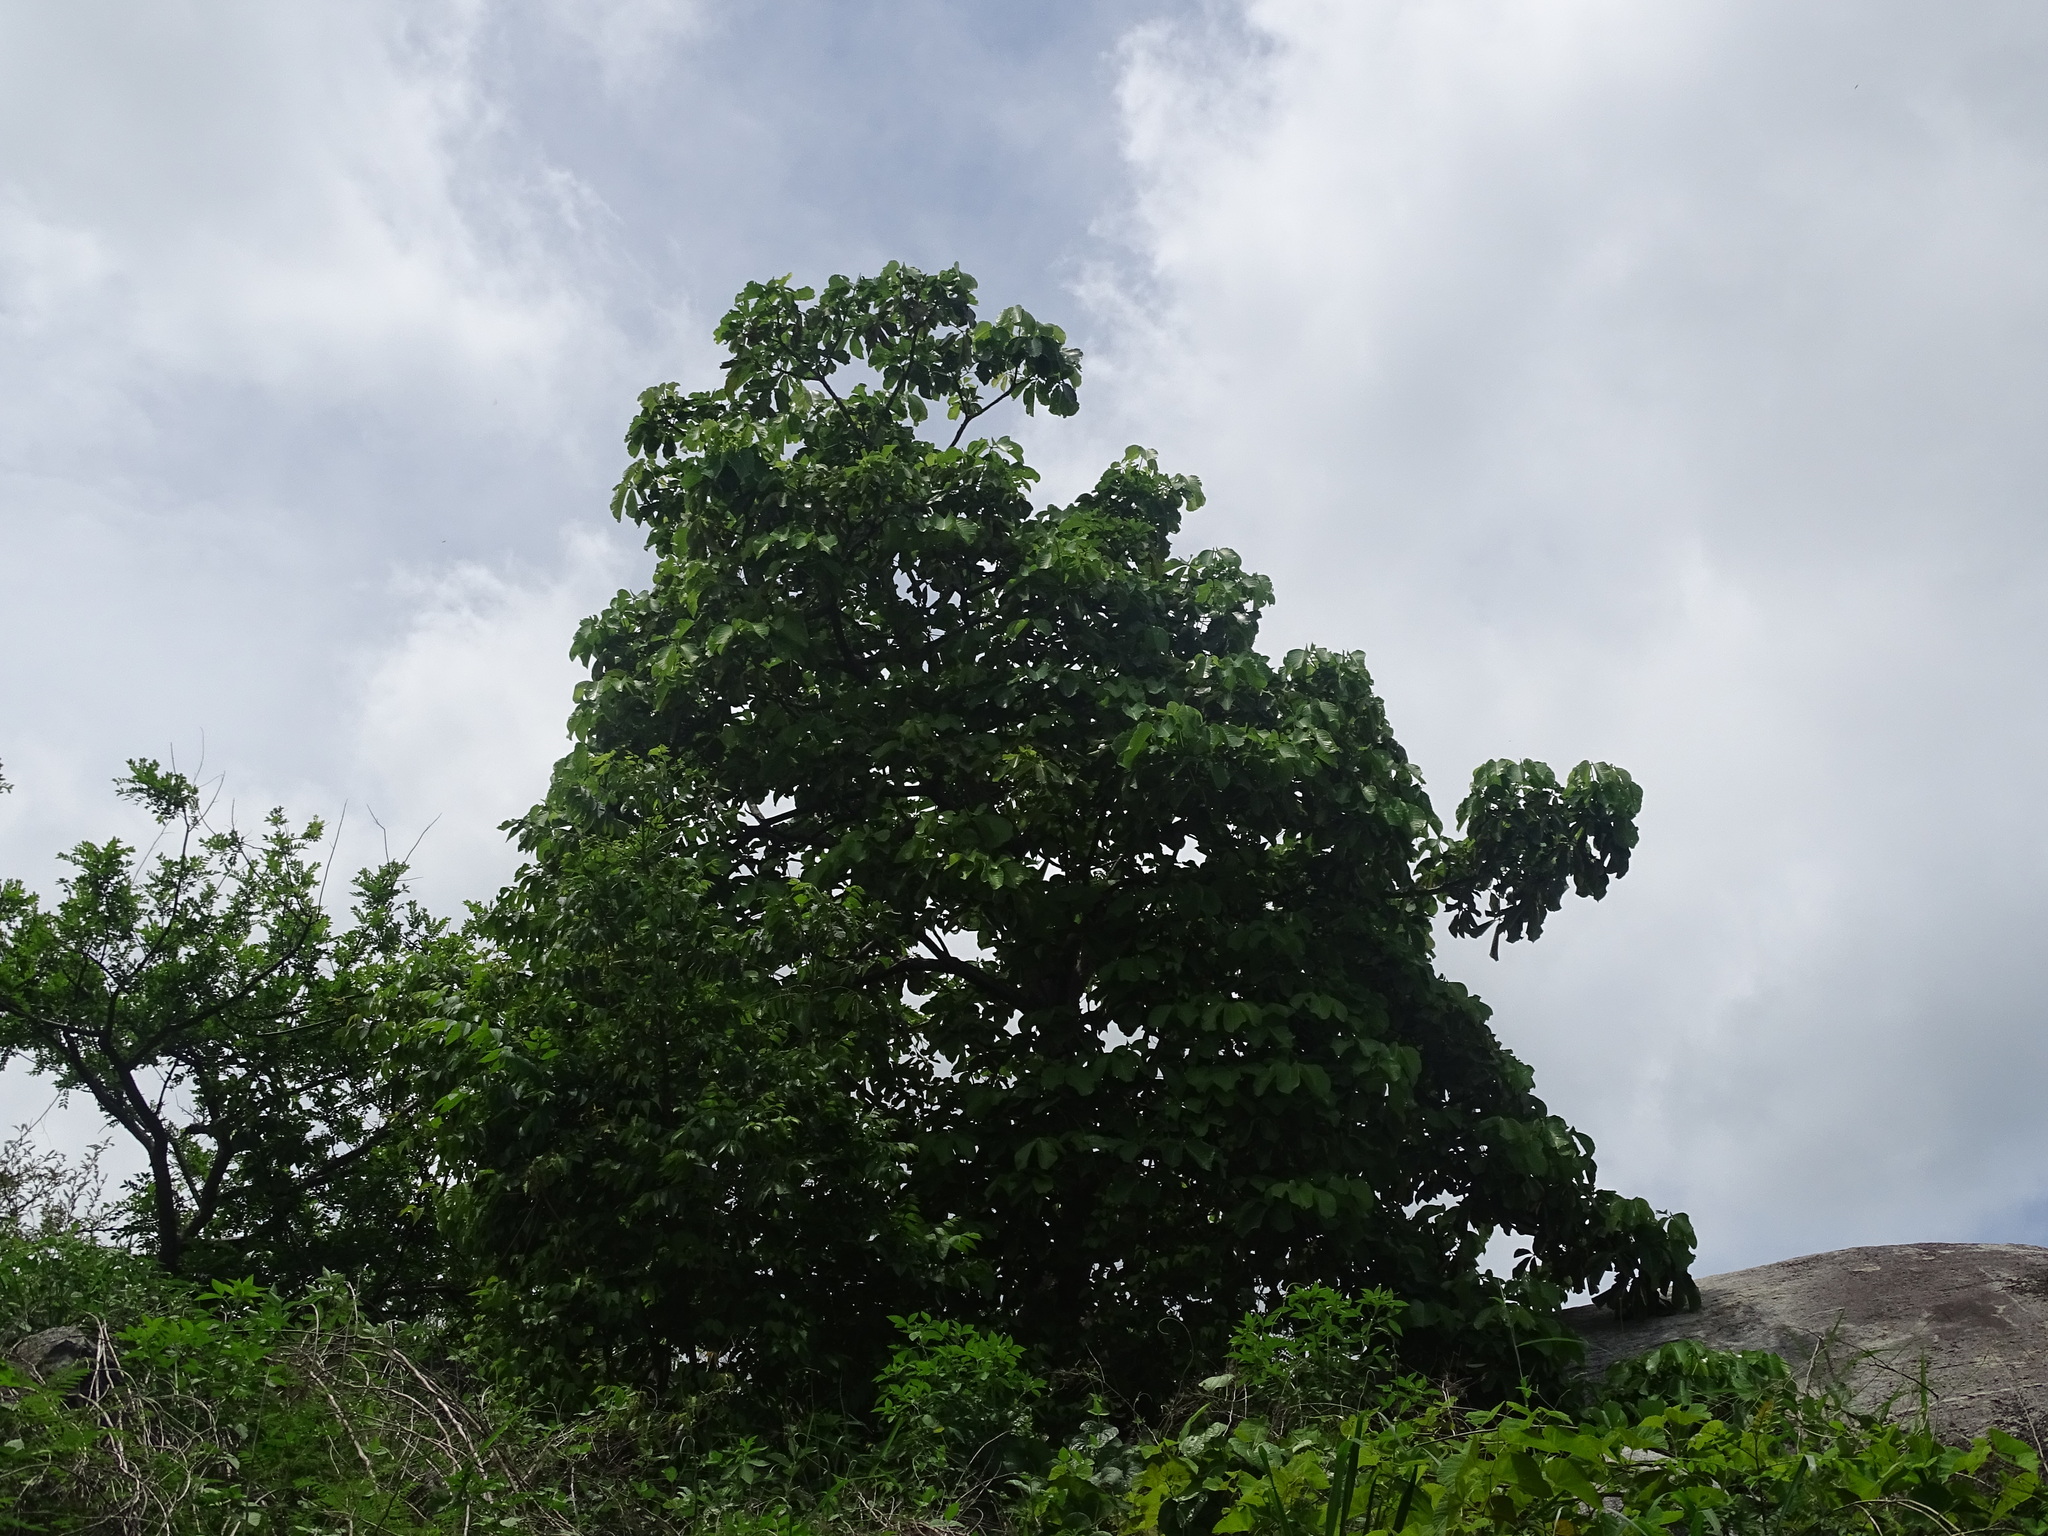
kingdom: Plantae
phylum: Tracheophyta
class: Magnoliopsida
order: Malvales
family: Malvaceae
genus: Pseudobombax
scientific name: Pseudobombax ellipticum
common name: Shaving-brush-tree
